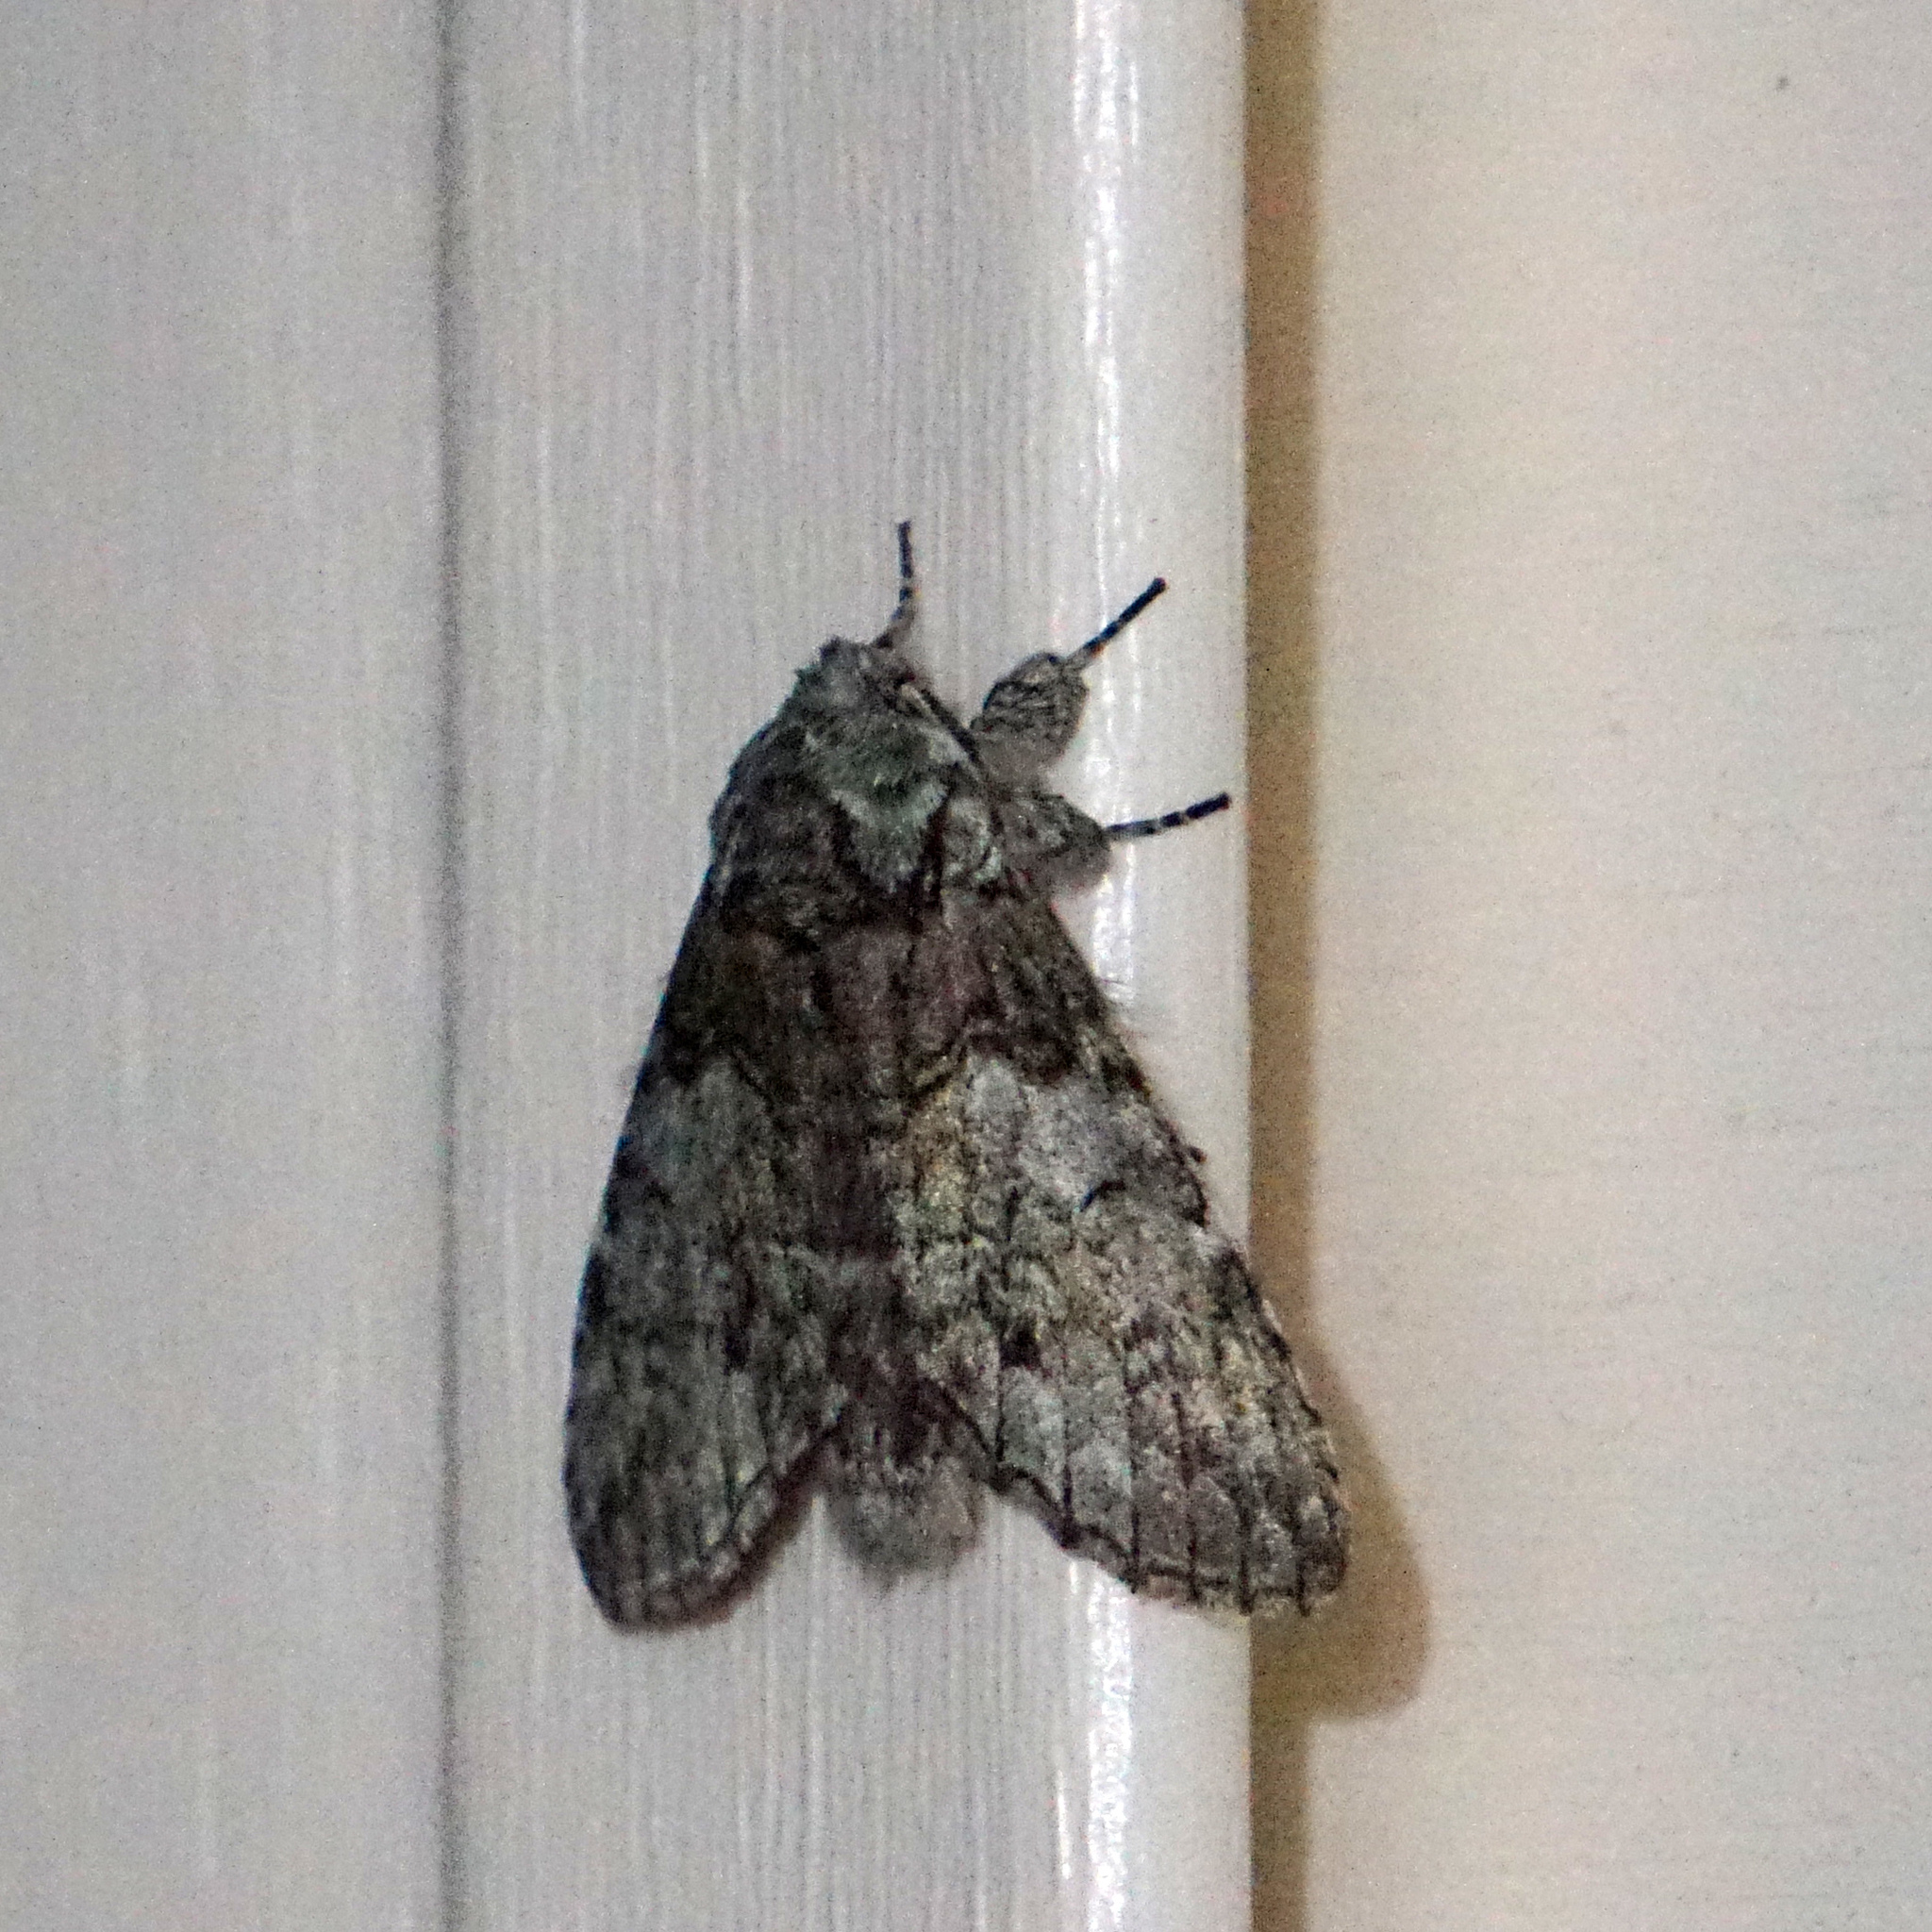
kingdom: Animalia
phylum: Arthropoda
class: Insecta
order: Lepidoptera
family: Notodontidae
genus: Macrurocampa
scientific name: Macrurocampa marthesia
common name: Mottled prominent
